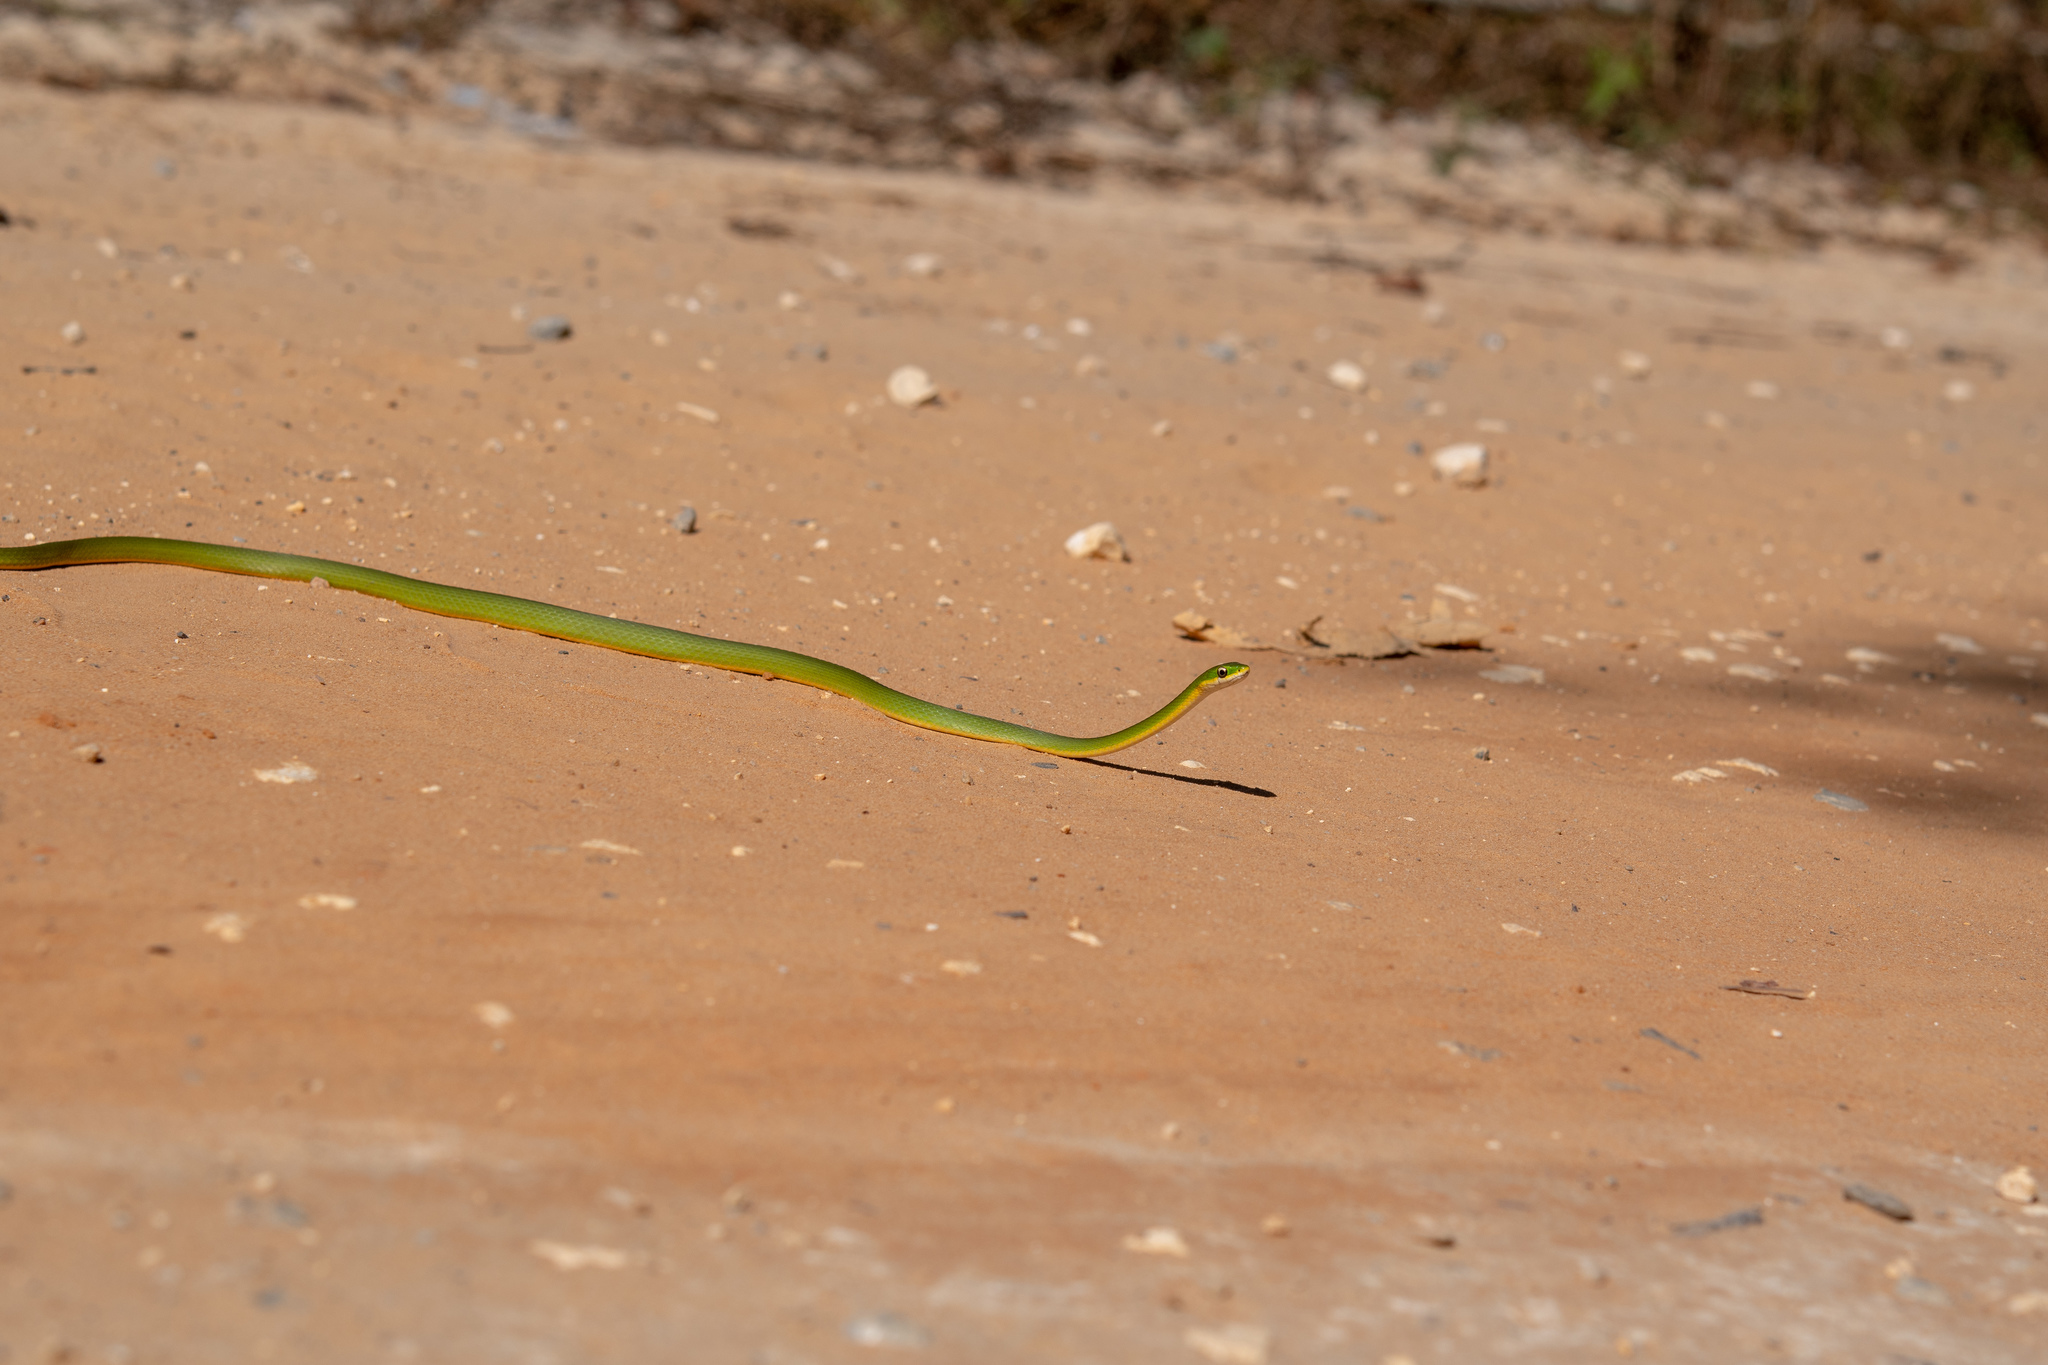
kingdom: Animalia
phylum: Chordata
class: Squamata
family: Colubridae
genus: Opheodrys
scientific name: Opheodrys aestivus
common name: Rough greensnake
